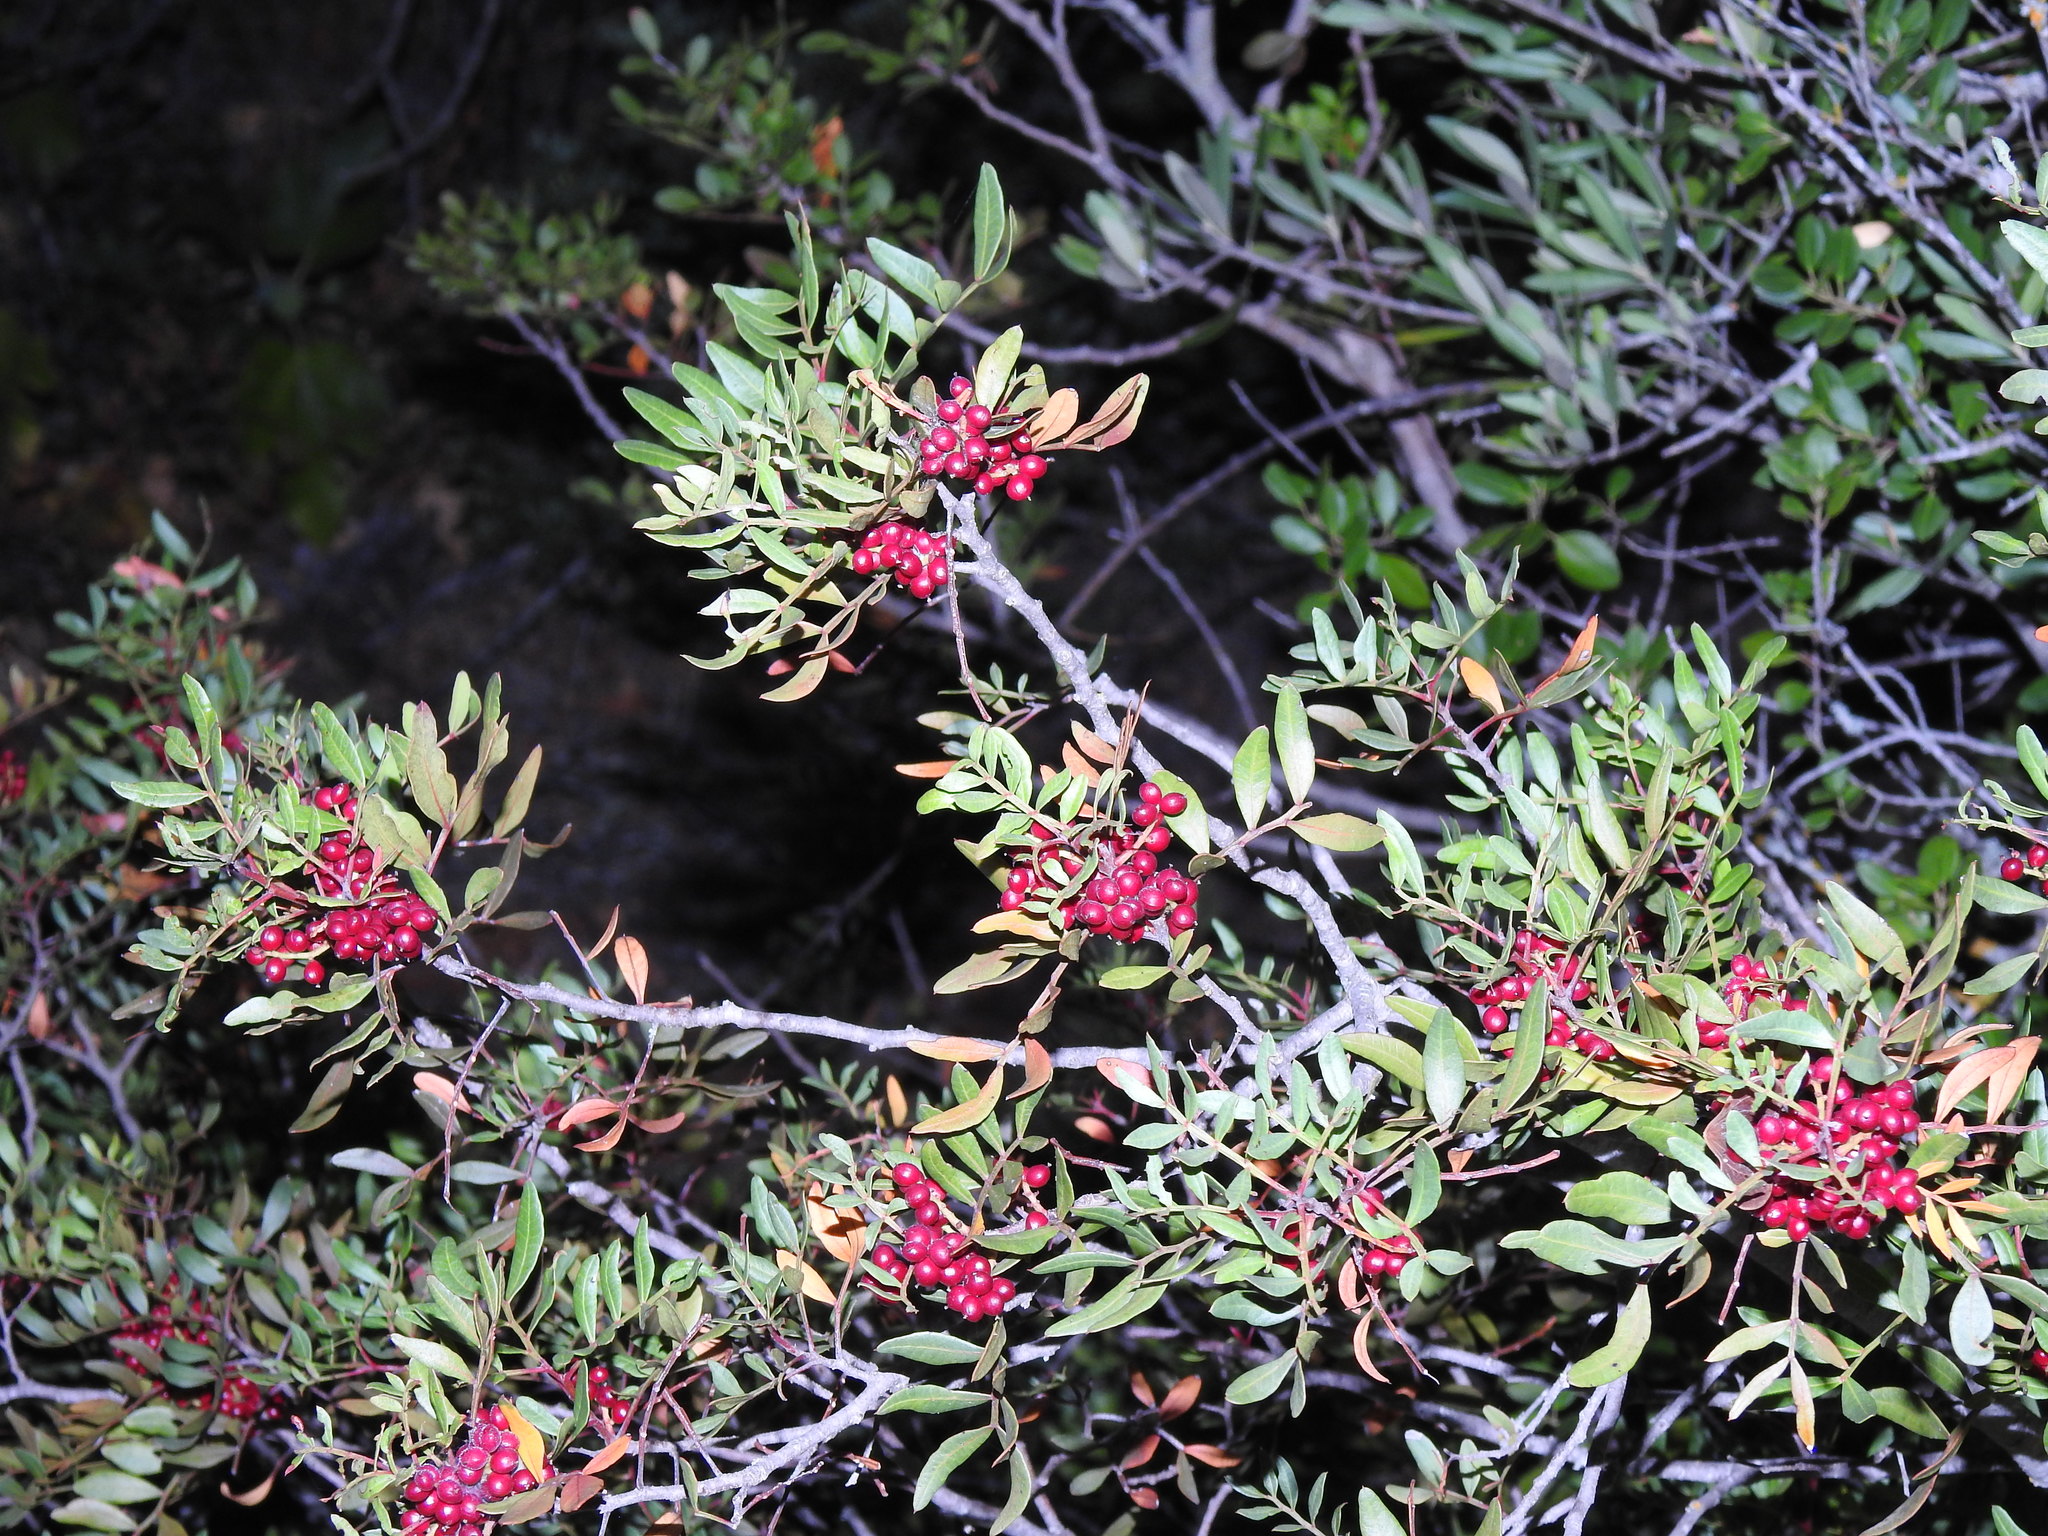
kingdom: Plantae
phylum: Tracheophyta
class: Magnoliopsida
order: Sapindales
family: Anacardiaceae
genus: Pistacia
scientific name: Pistacia lentiscus
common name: Lentisk
